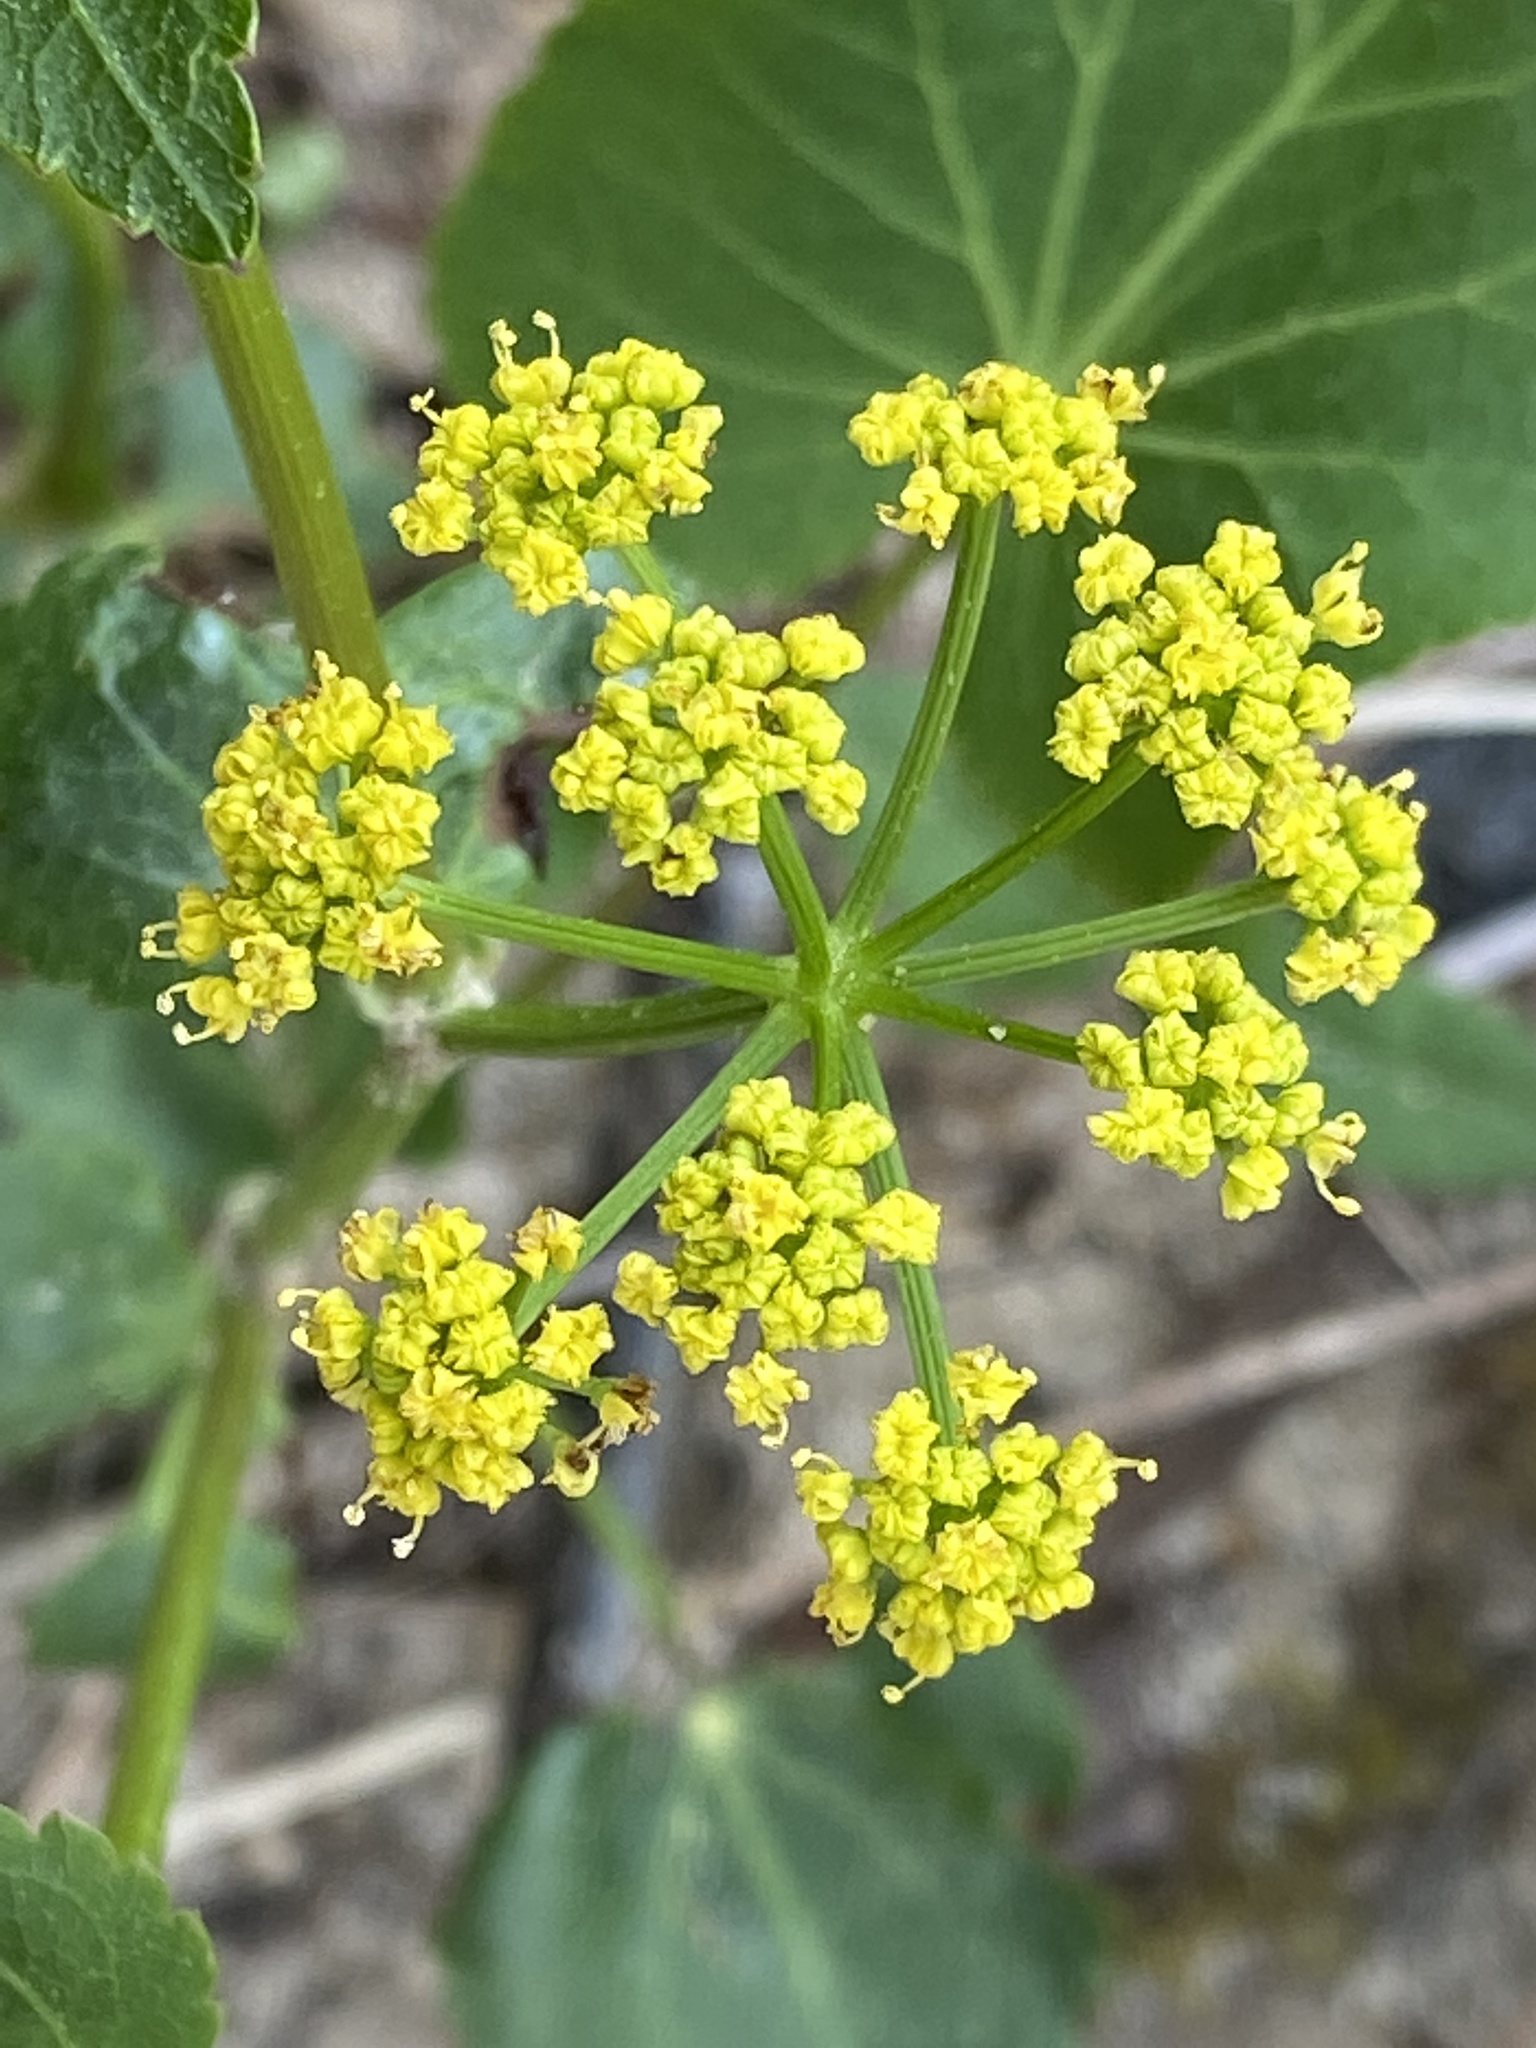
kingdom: Plantae
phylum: Tracheophyta
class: Magnoliopsida
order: Apiales
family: Apiaceae
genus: Thaspium
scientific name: Thaspium trifoliatum
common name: Purple meadow-parsnip
